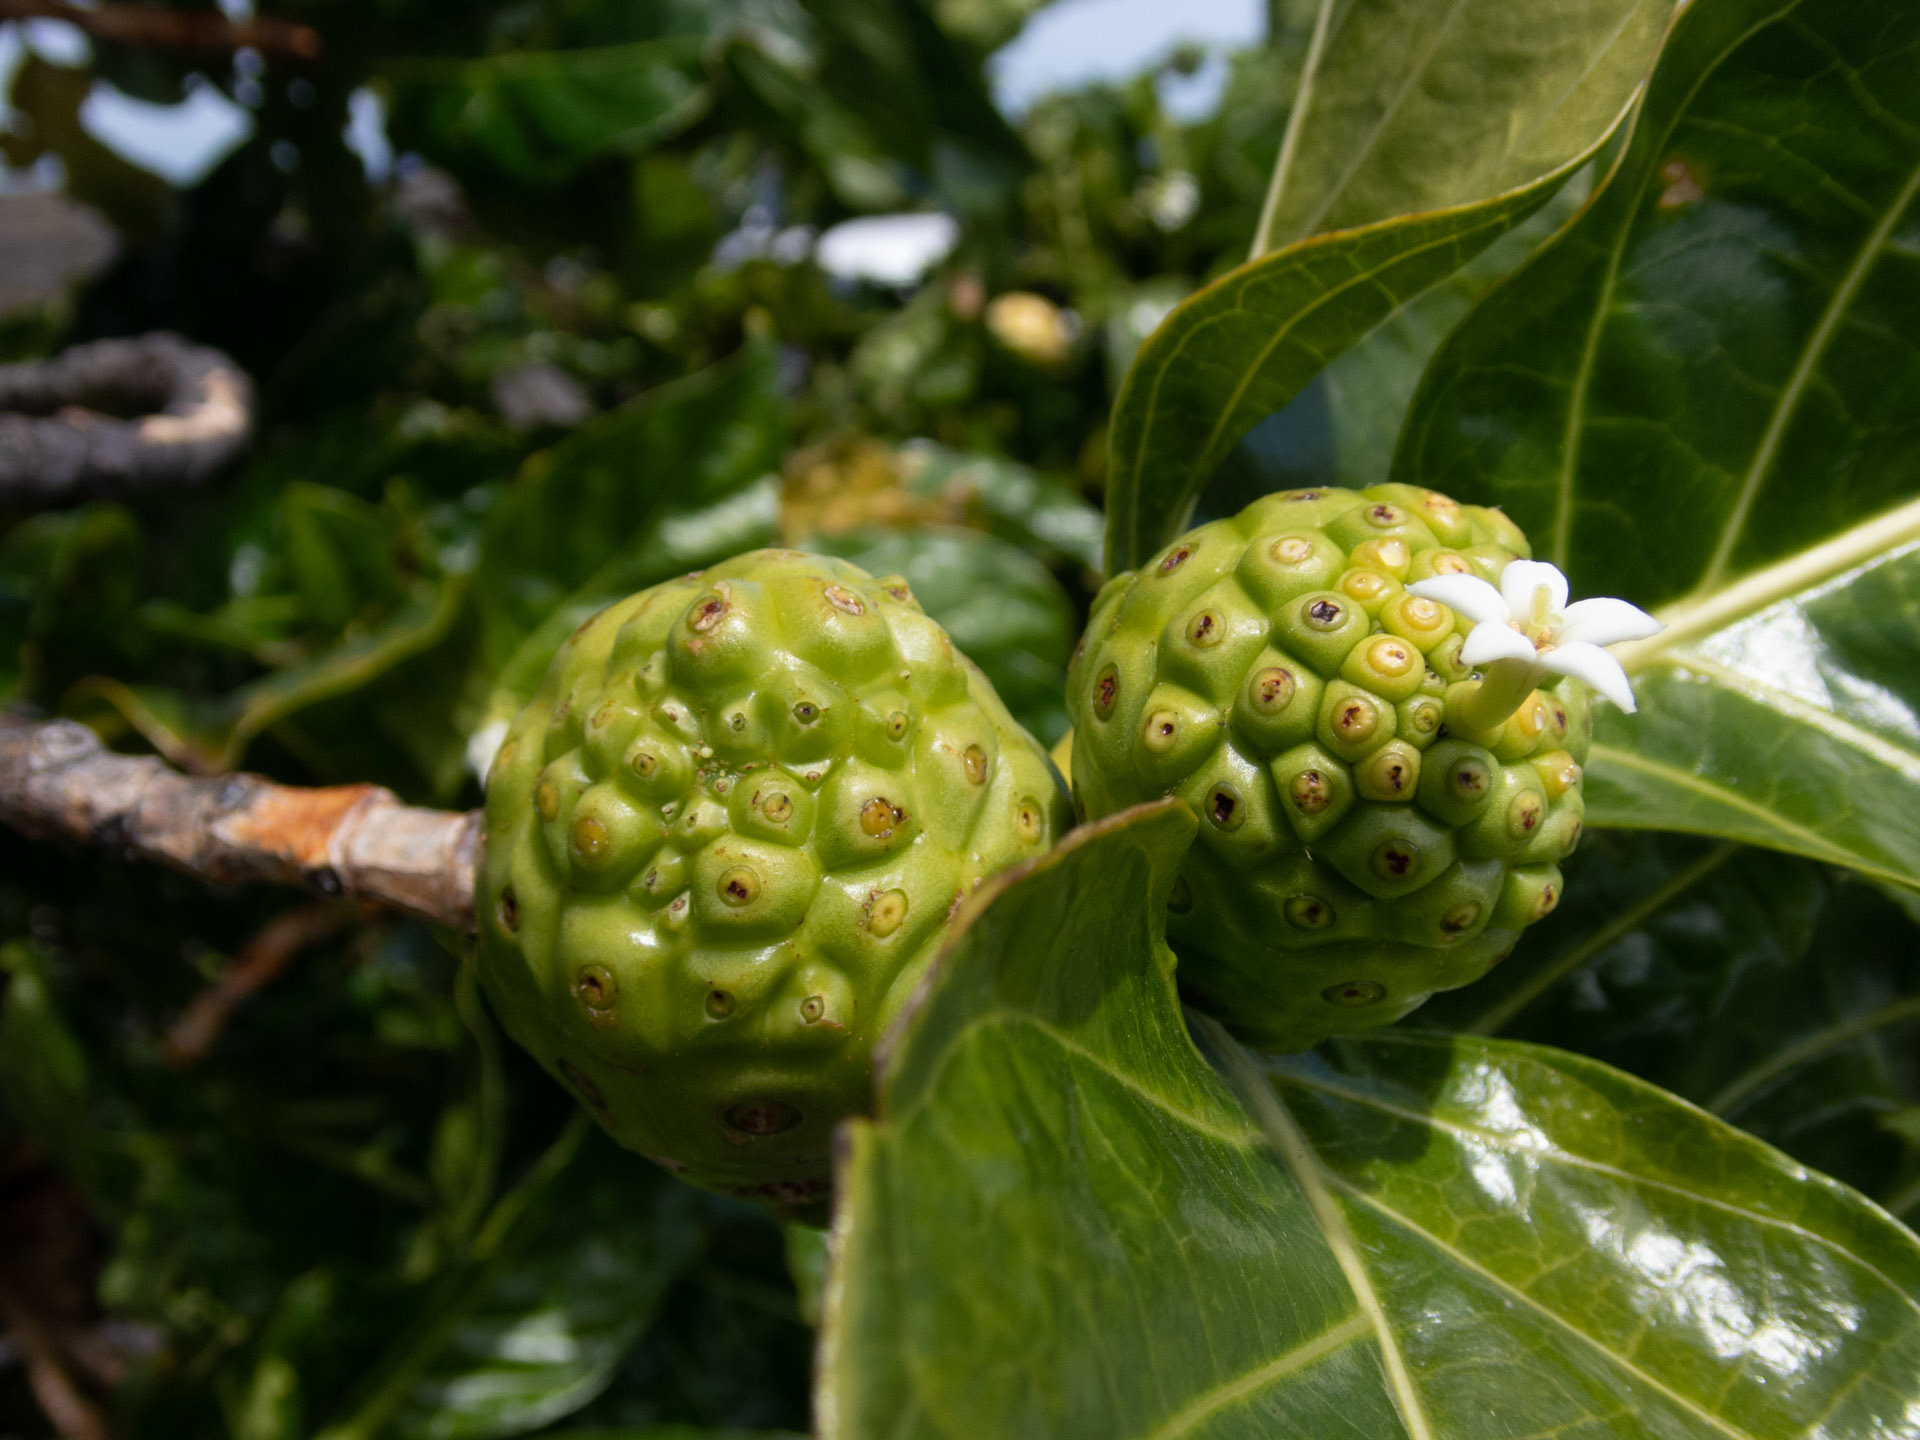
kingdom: Plantae
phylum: Tracheophyta
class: Magnoliopsida
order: Gentianales
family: Rubiaceae
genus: Morinda
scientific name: Morinda citrifolia
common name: Indian-mulberry
